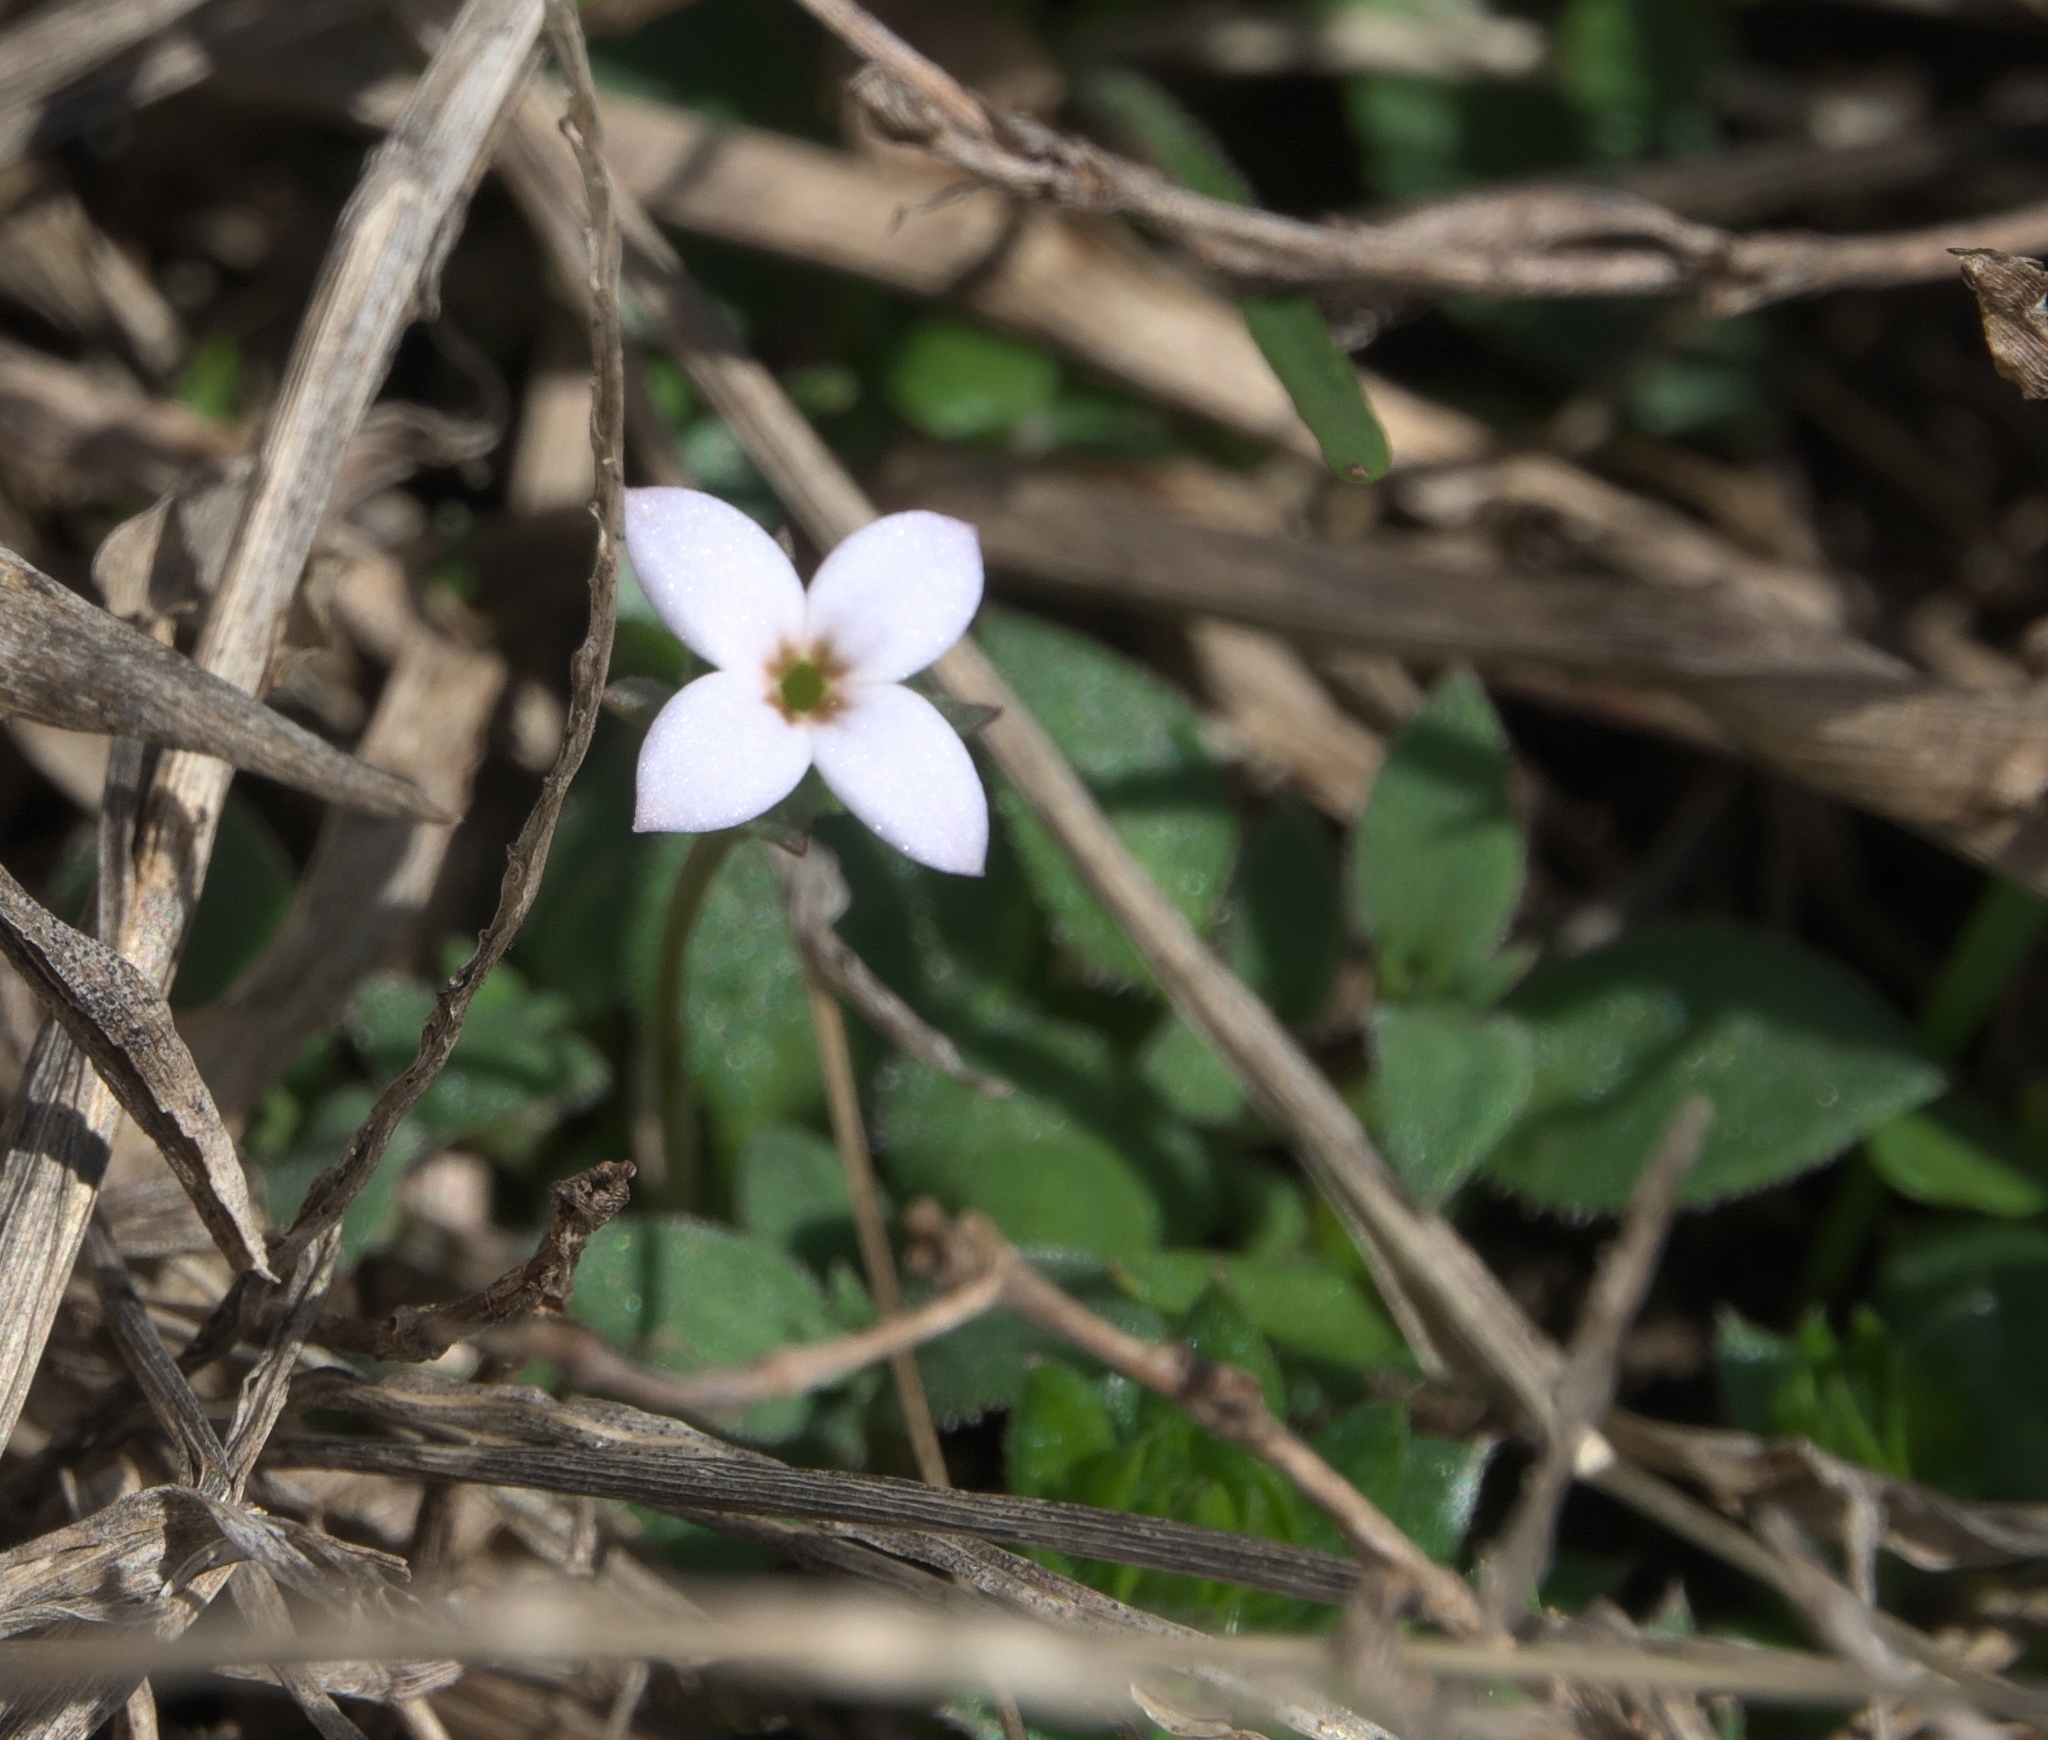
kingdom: Plantae
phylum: Tracheophyta
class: Magnoliopsida
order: Gentianales
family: Rubiaceae
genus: Houstonia
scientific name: Houstonia pusilla
